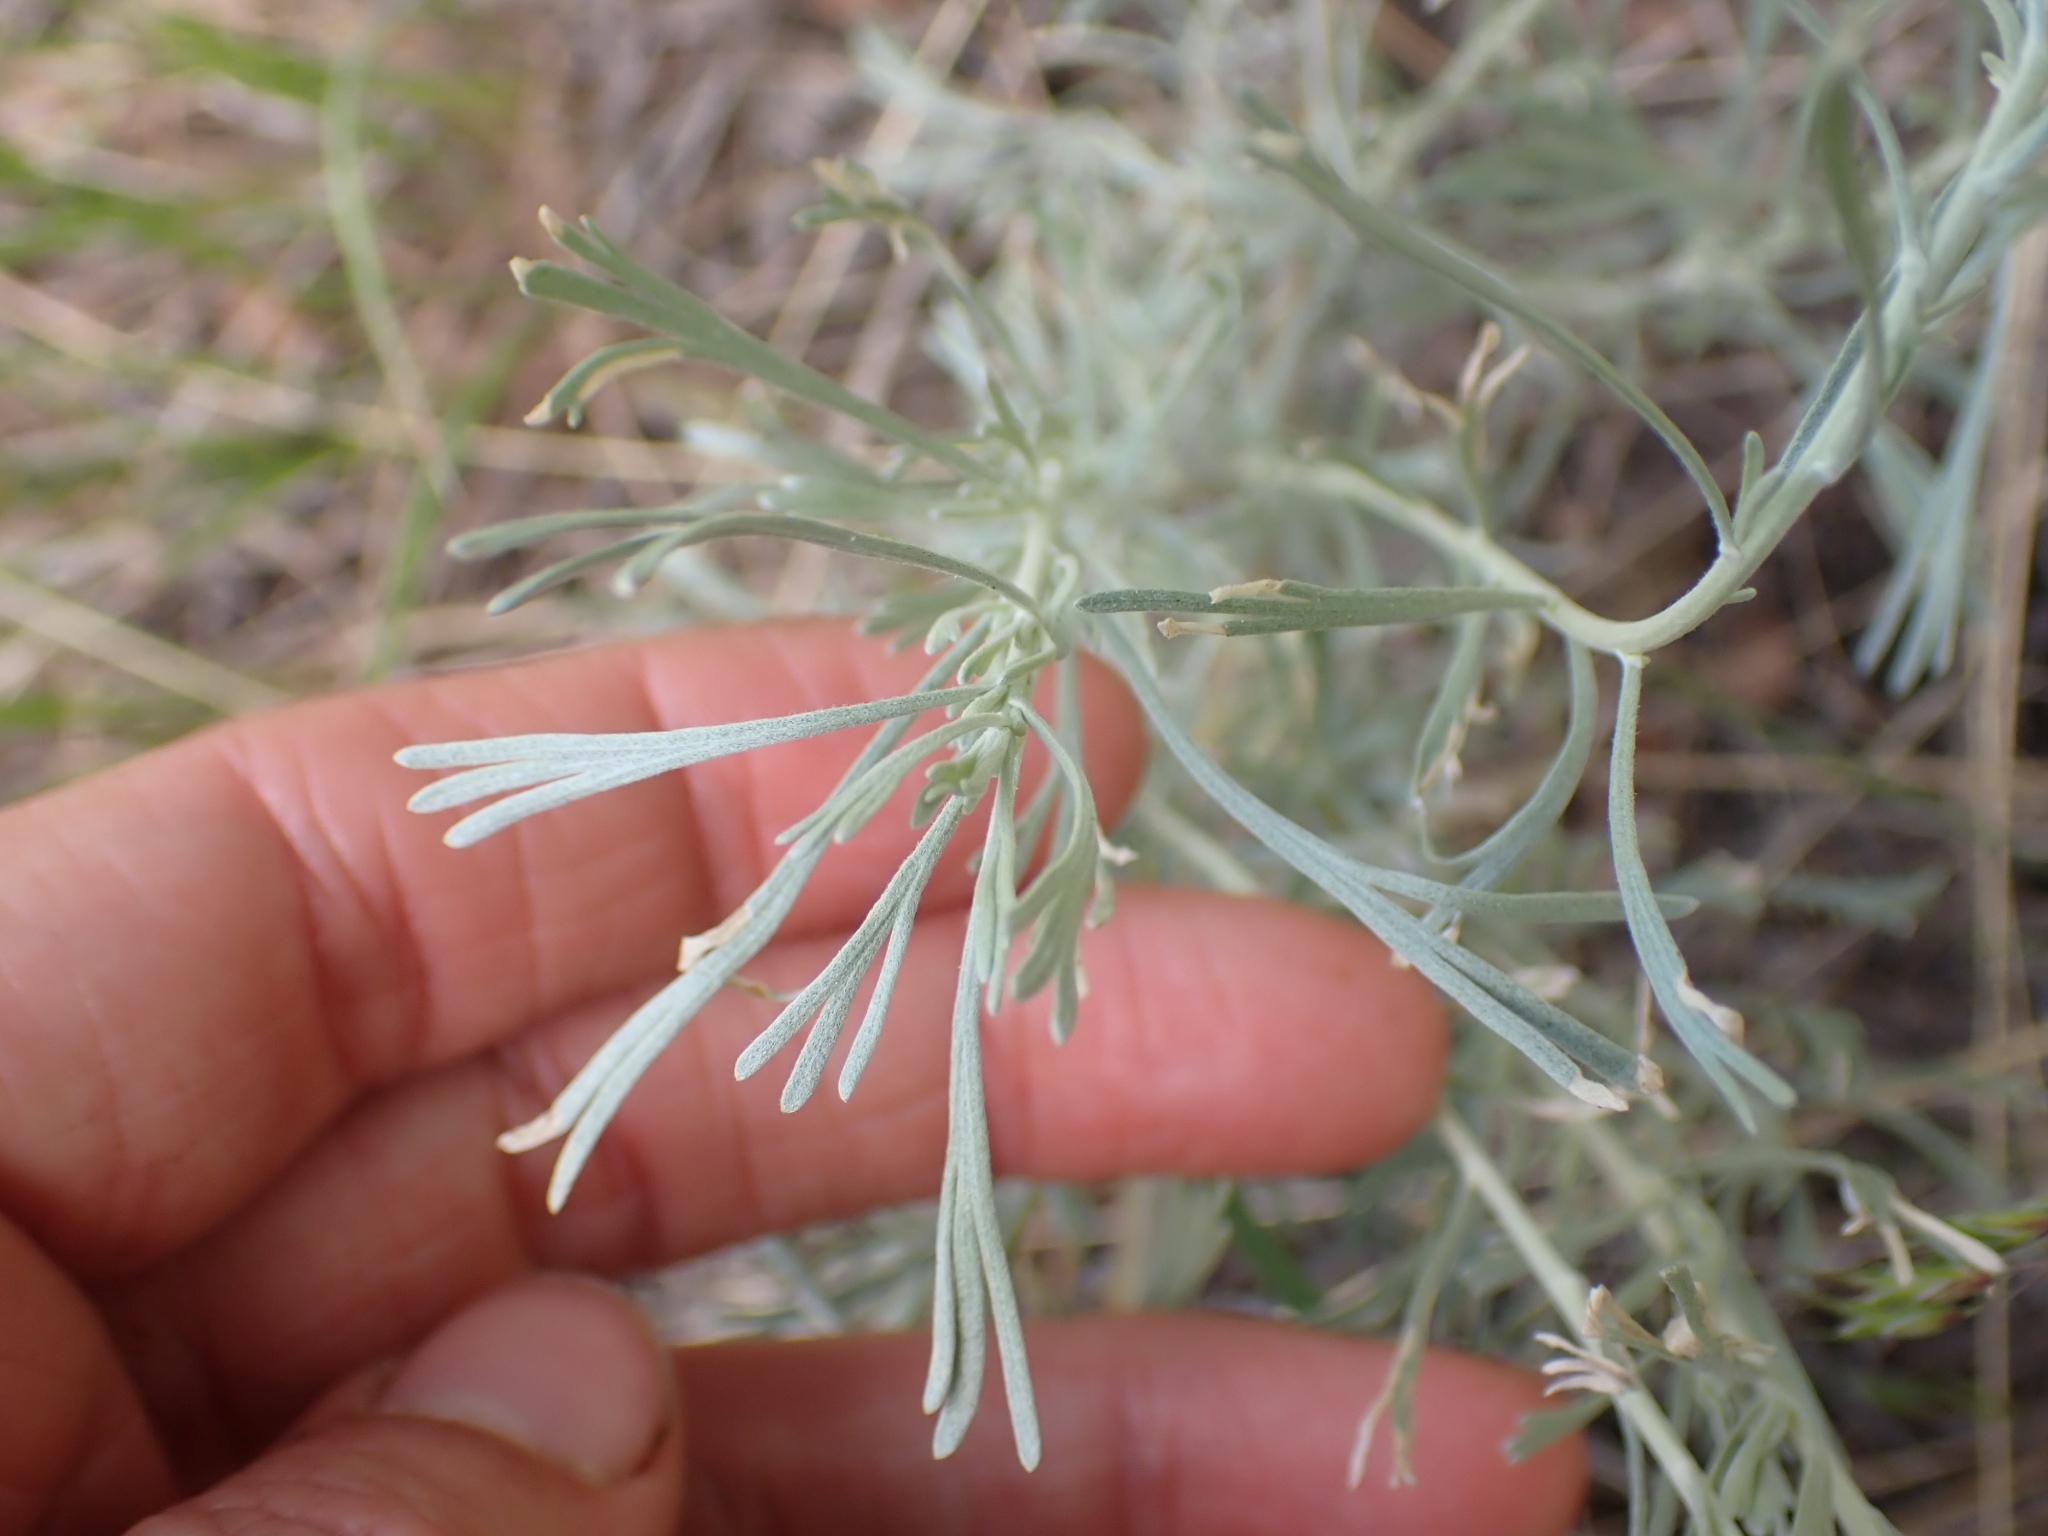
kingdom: Plantae
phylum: Tracheophyta
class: Magnoliopsida
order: Asterales
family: Asteraceae
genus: Artemisia
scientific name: Artemisia tripartita
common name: Three-tip sagebrush
